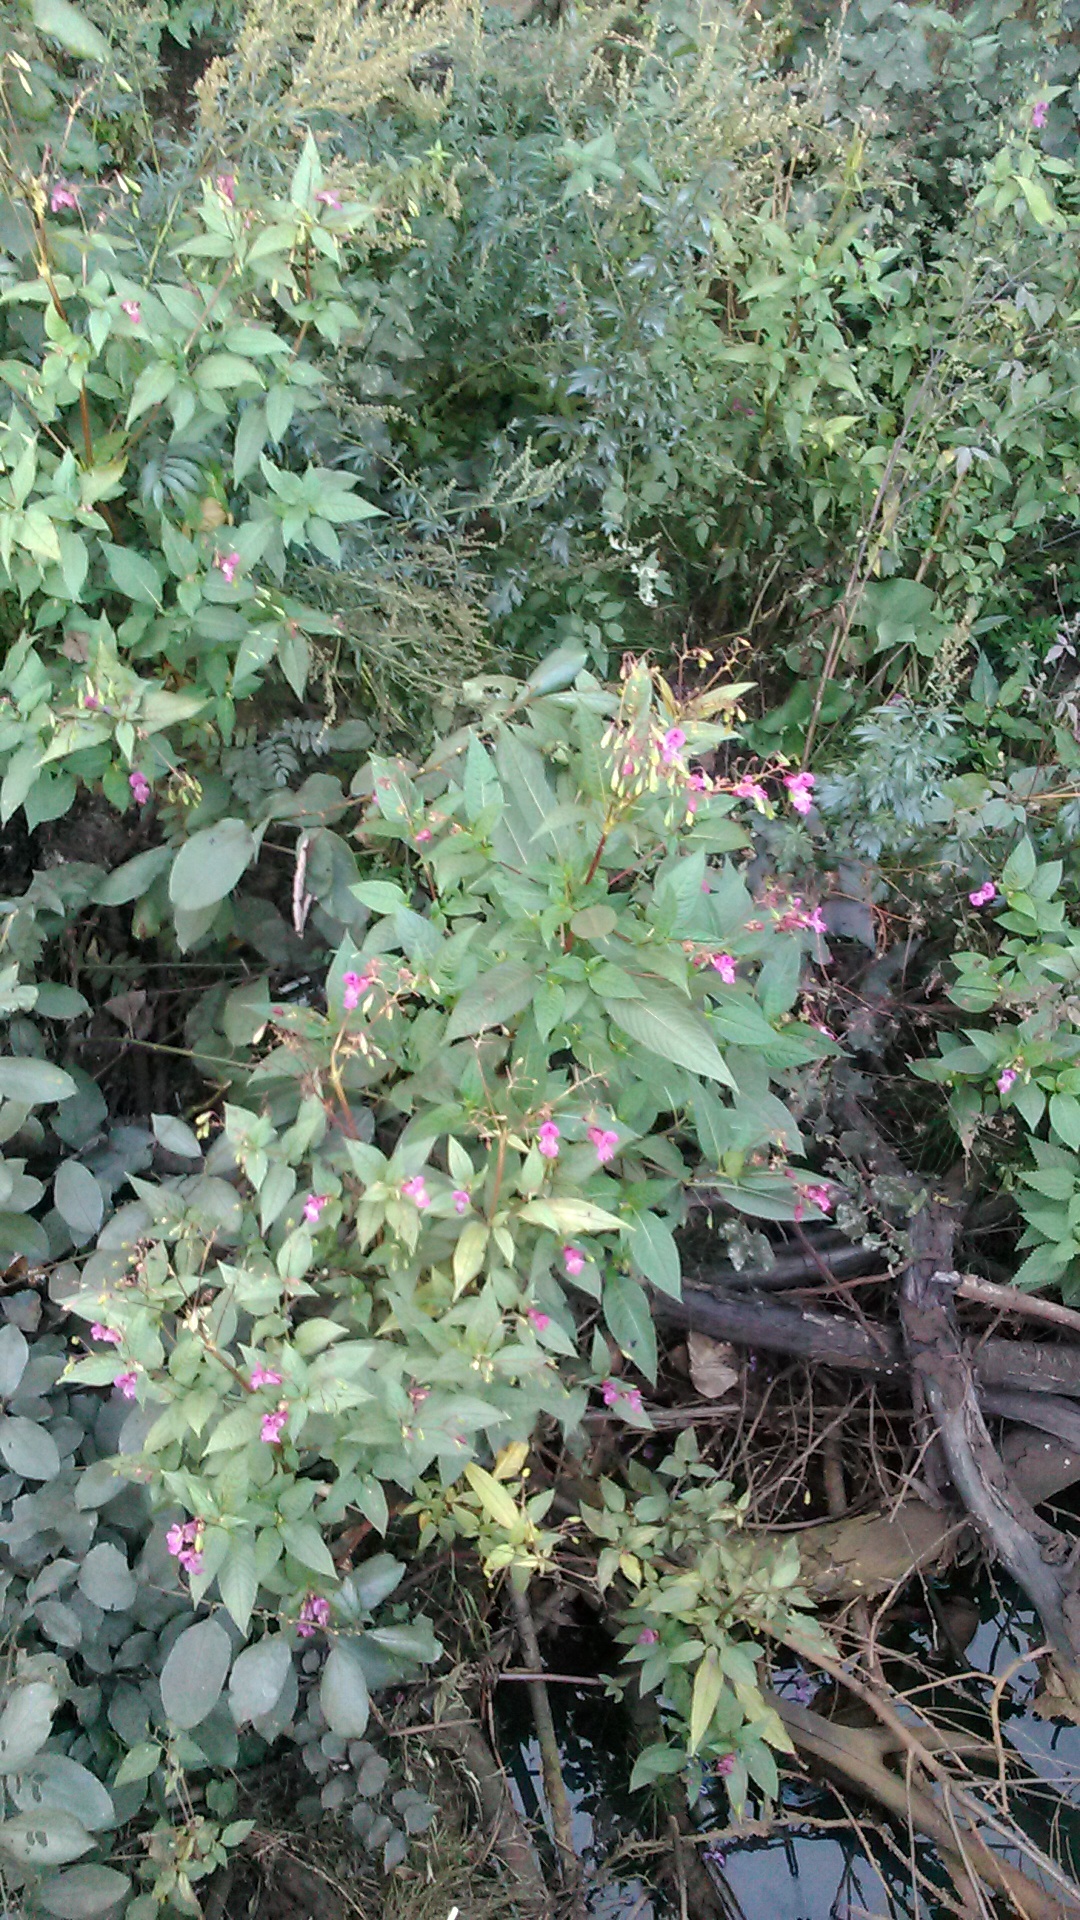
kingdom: Plantae
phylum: Tracheophyta
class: Magnoliopsida
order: Ericales
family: Balsaminaceae
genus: Impatiens
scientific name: Impatiens glandulifera
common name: Himalayan balsam
